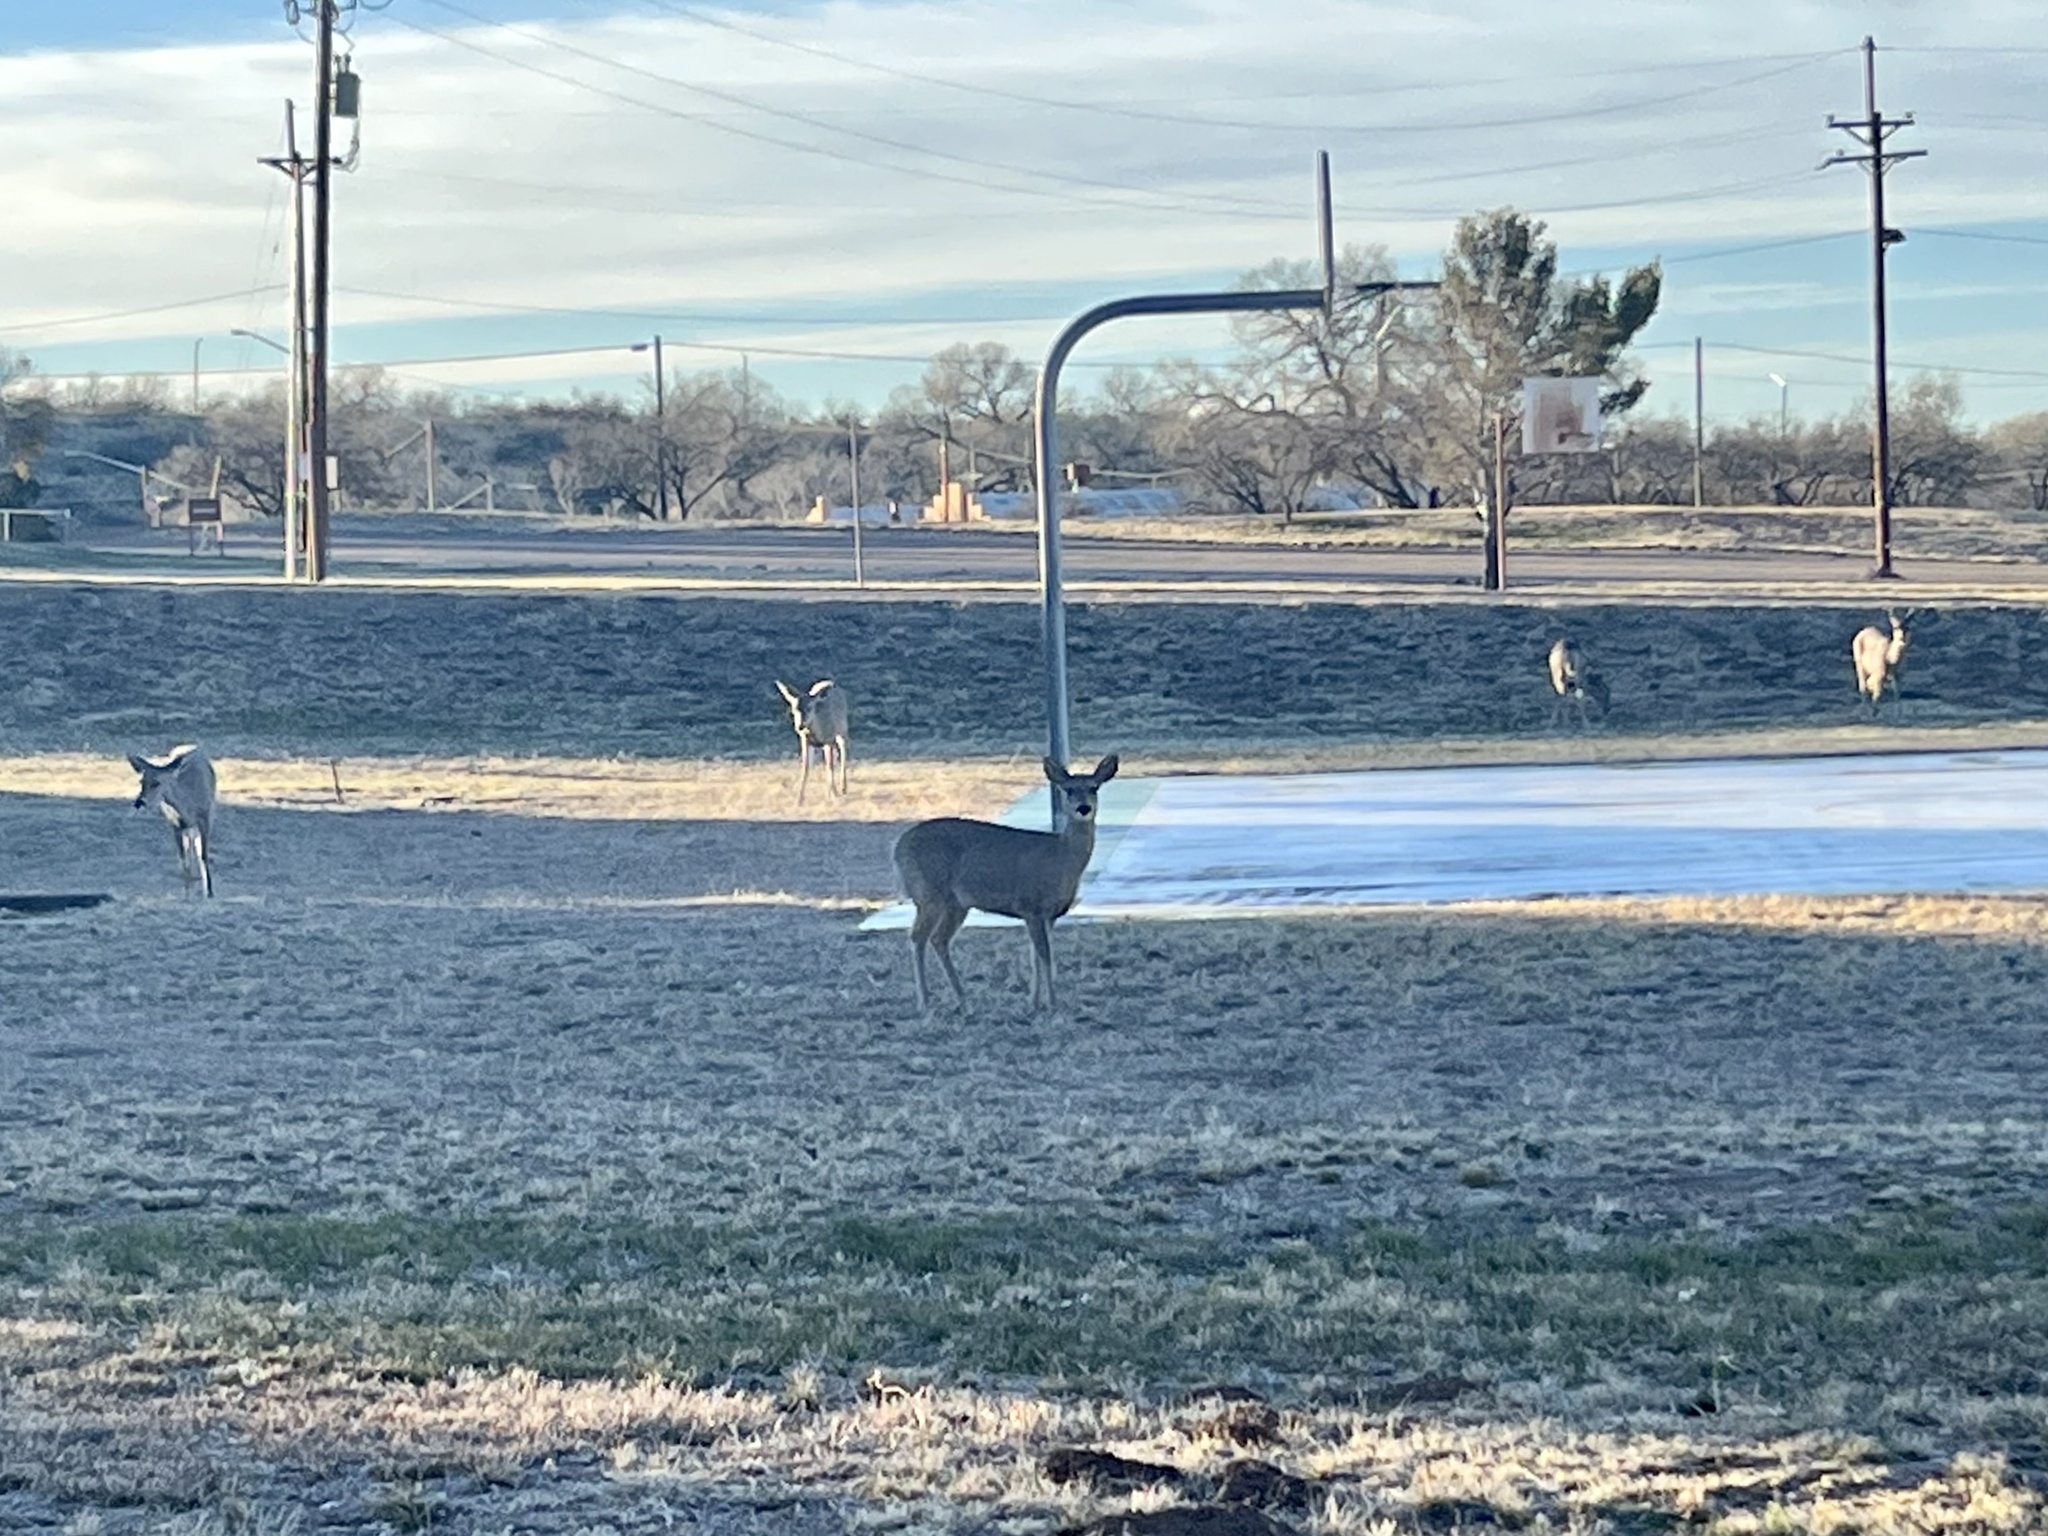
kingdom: Animalia
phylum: Chordata
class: Mammalia
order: Artiodactyla
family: Cervidae
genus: Odocoileus
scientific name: Odocoileus virginianus
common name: White-tailed deer
